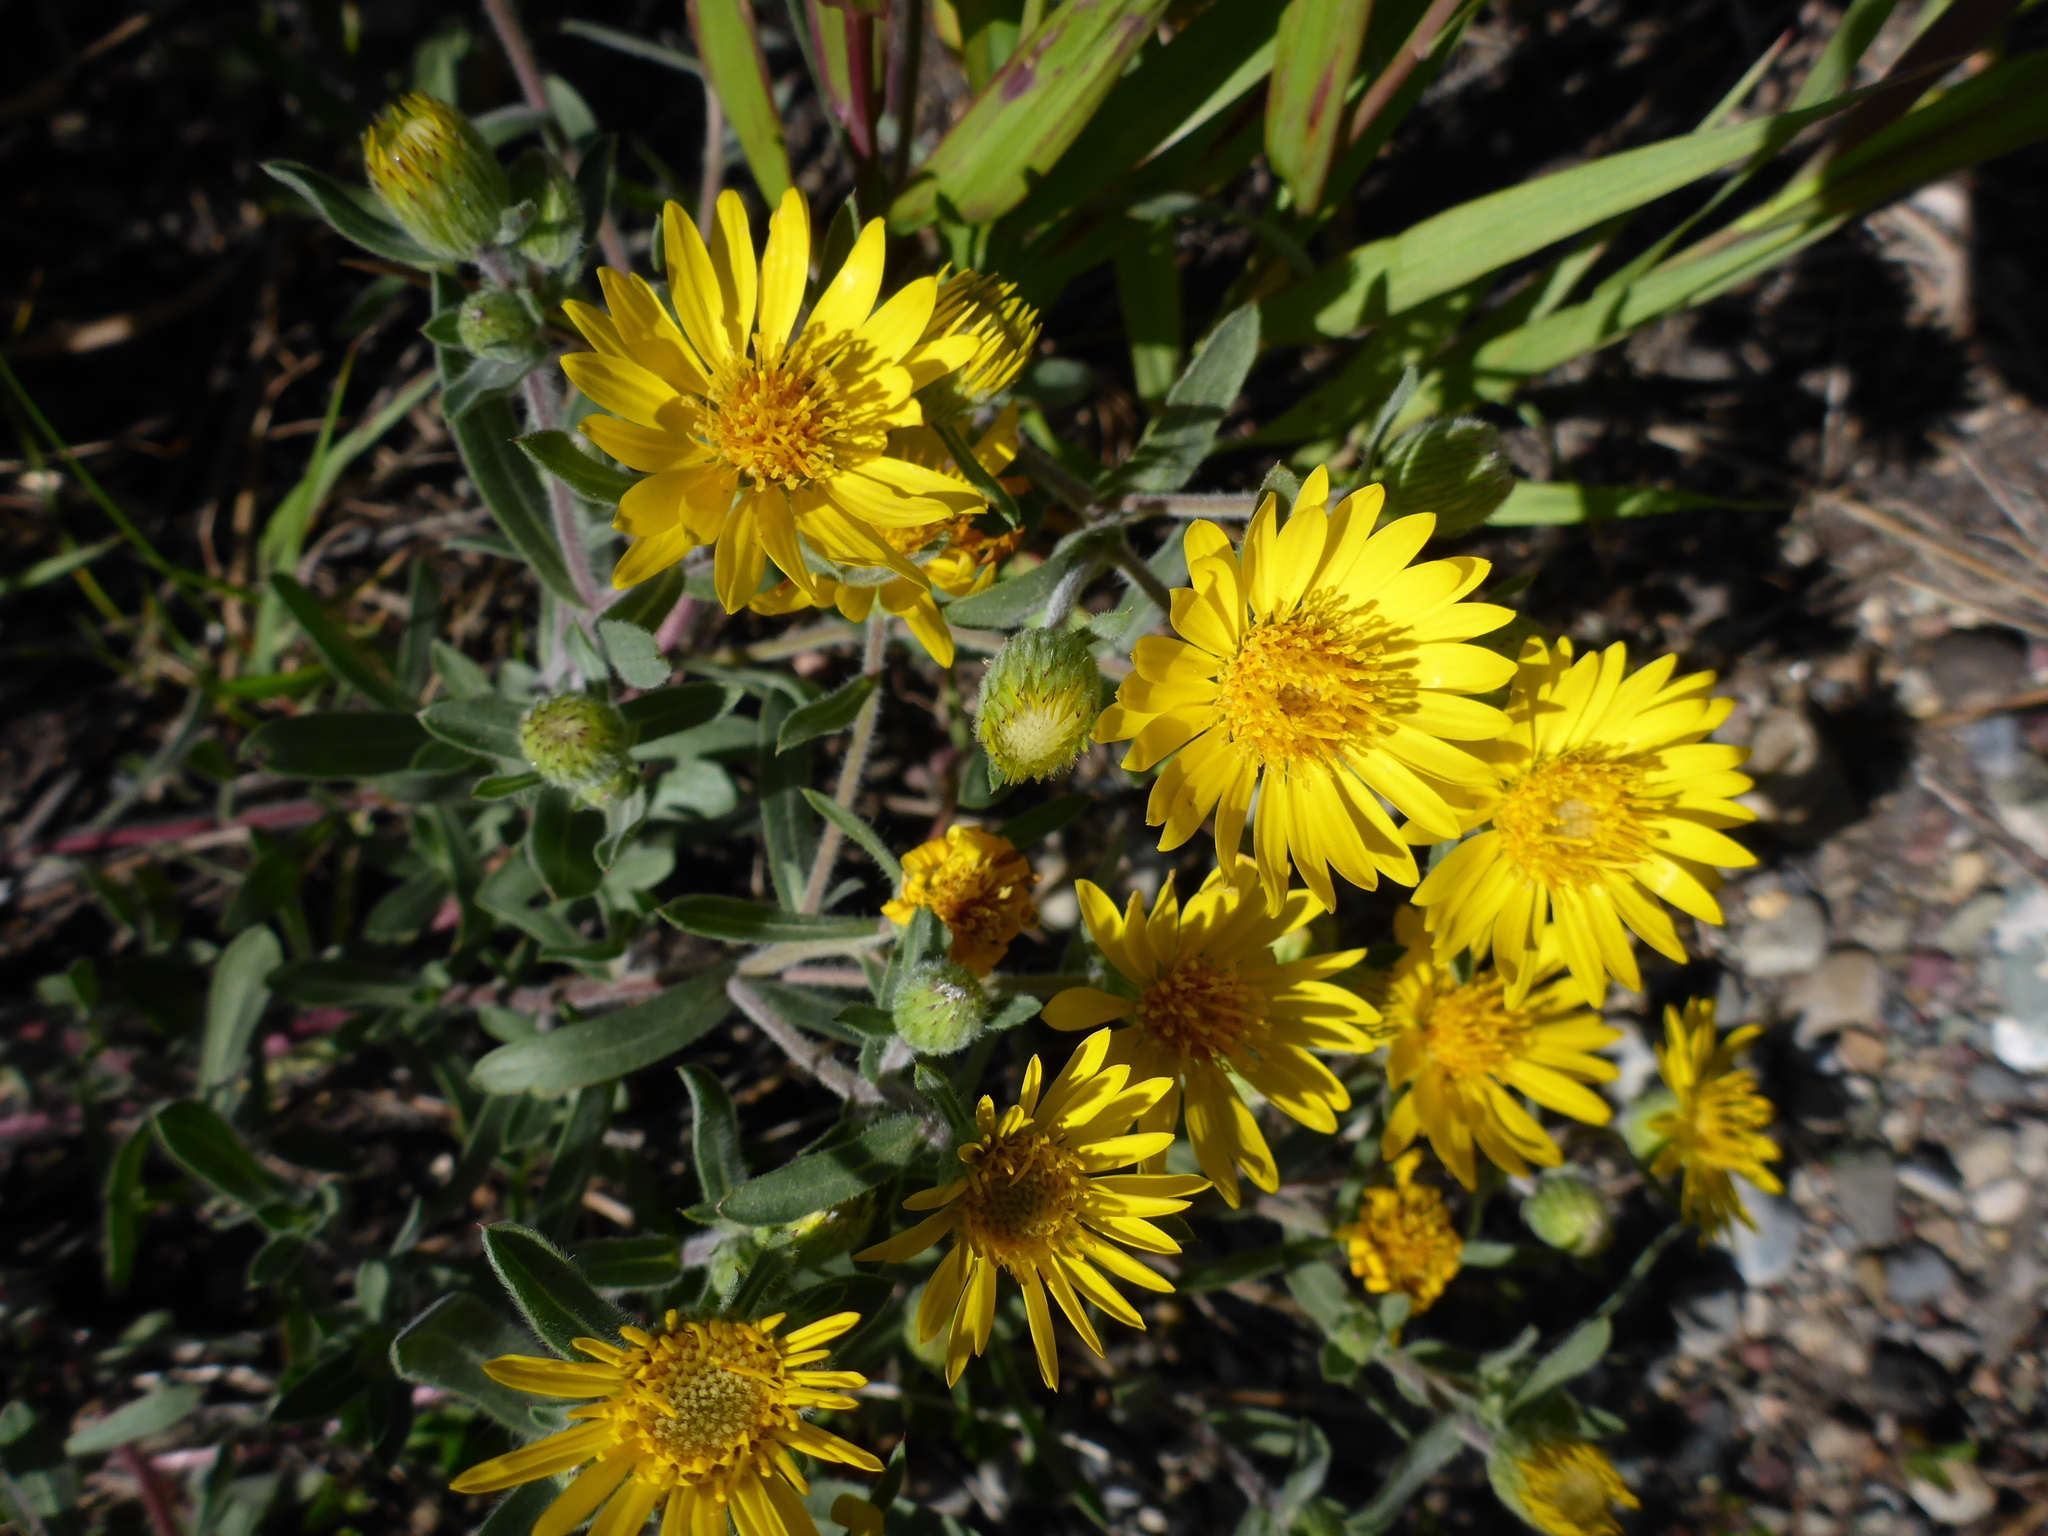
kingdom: Plantae
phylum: Tracheophyta
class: Magnoliopsida
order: Asterales
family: Asteraceae
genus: Heterotheca
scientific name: Heterotheca villosa
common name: Hairy false goldenaster
